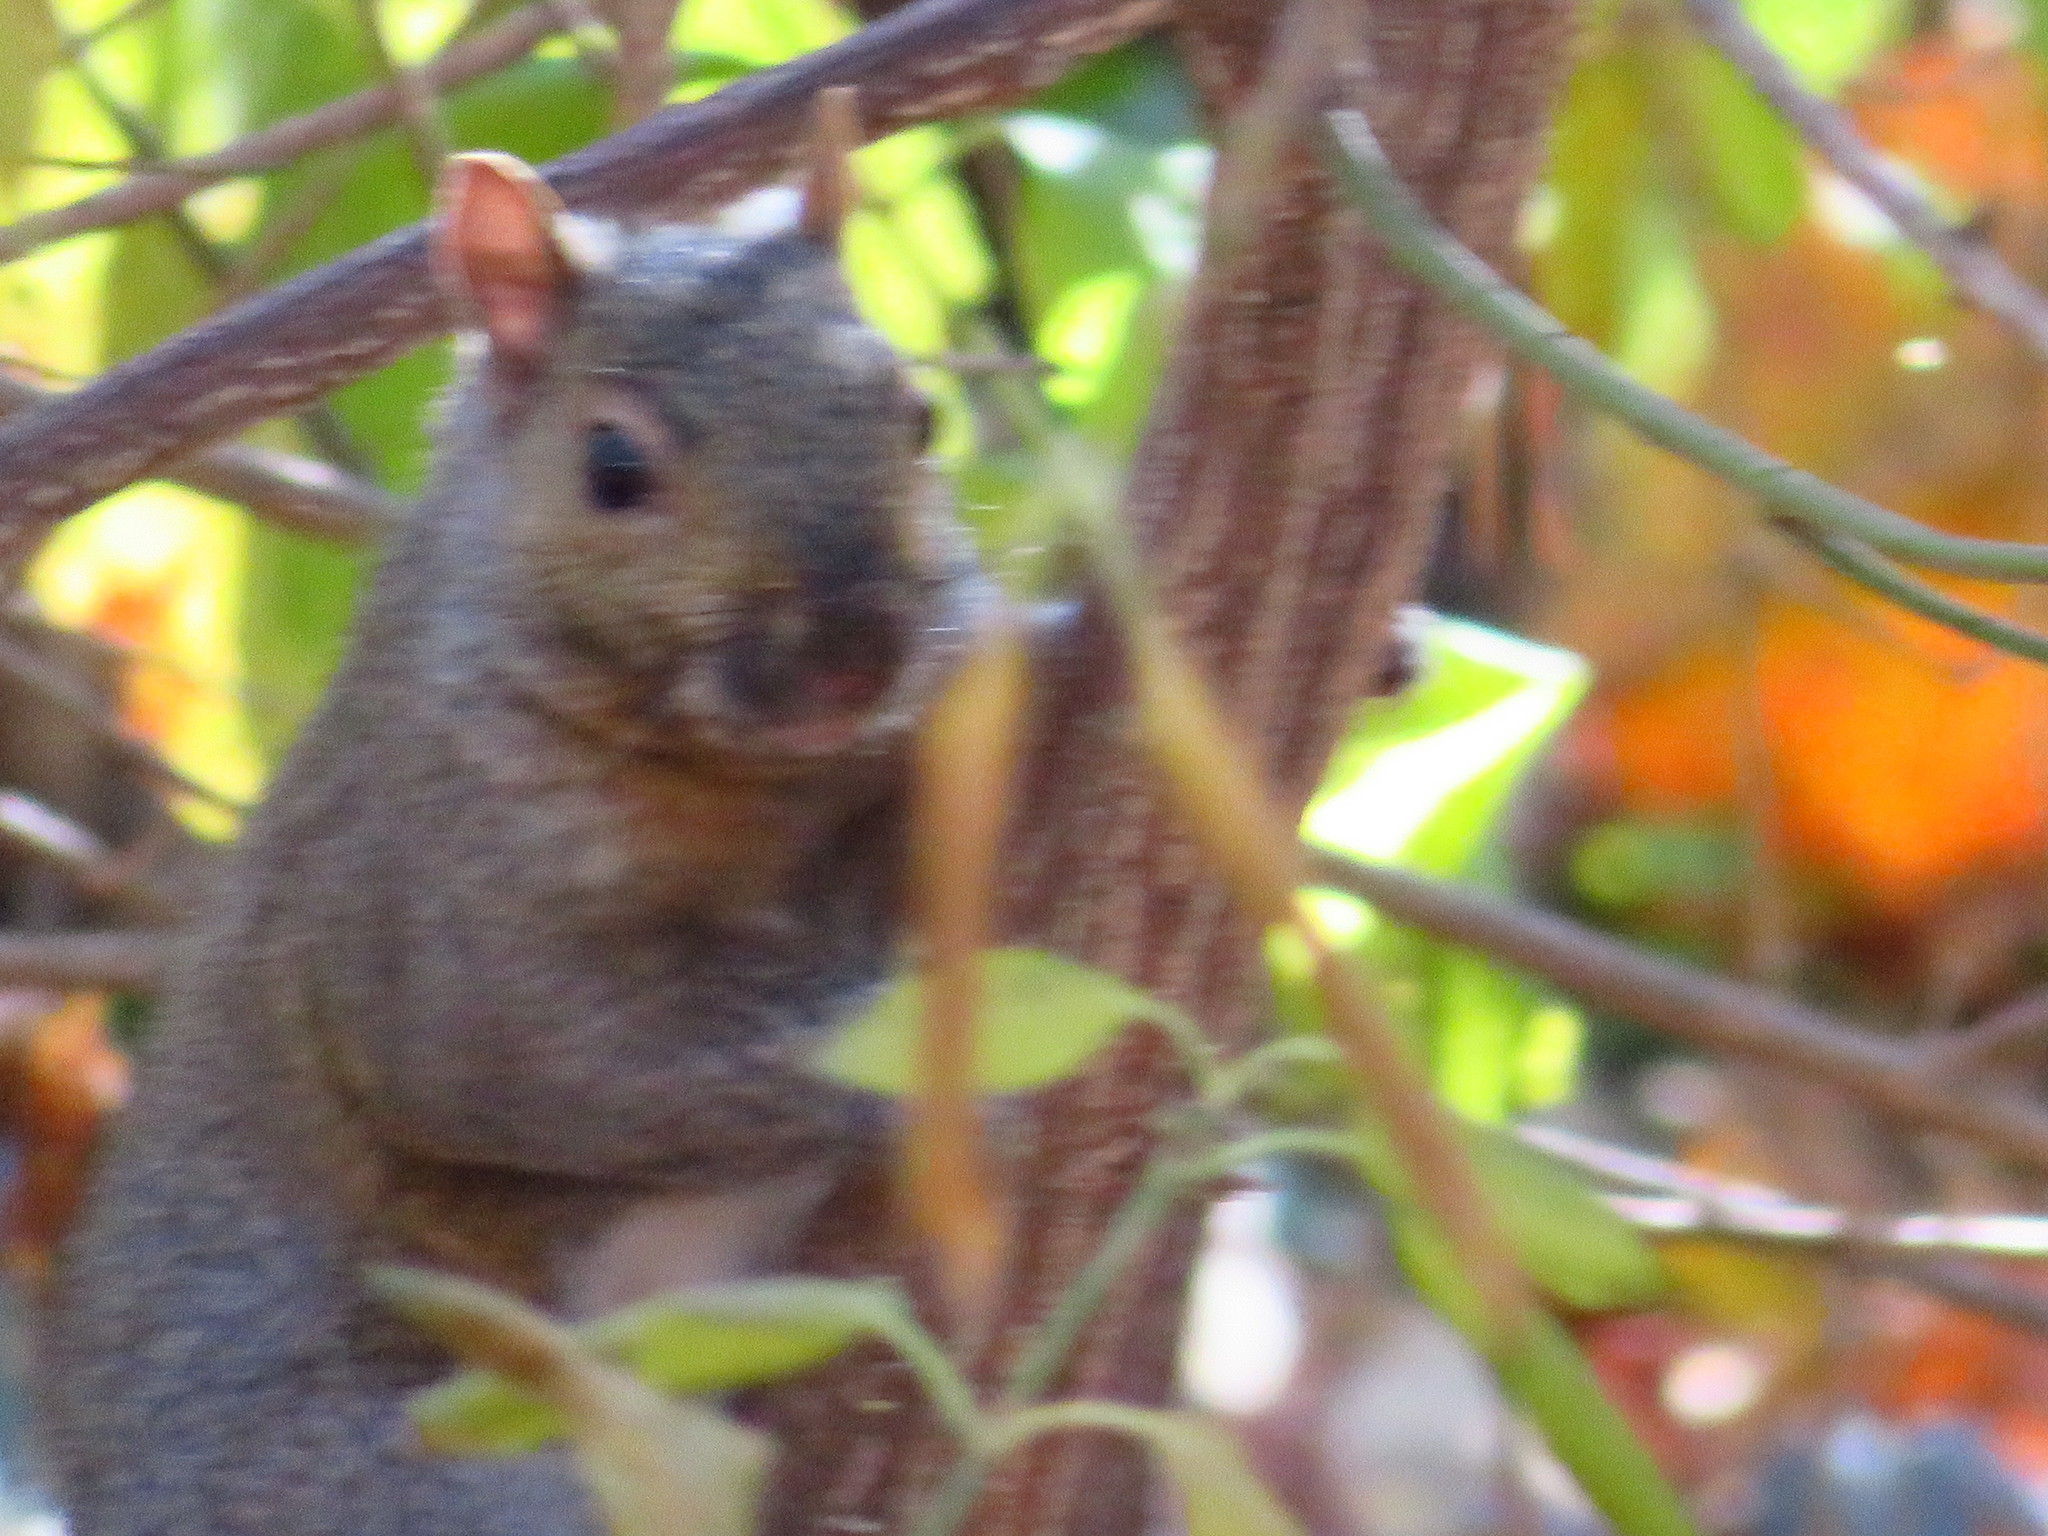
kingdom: Animalia
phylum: Chordata
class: Mammalia
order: Rodentia
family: Sciuridae
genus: Sciurus
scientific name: Sciurus carolinensis
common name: Eastern gray squirrel
